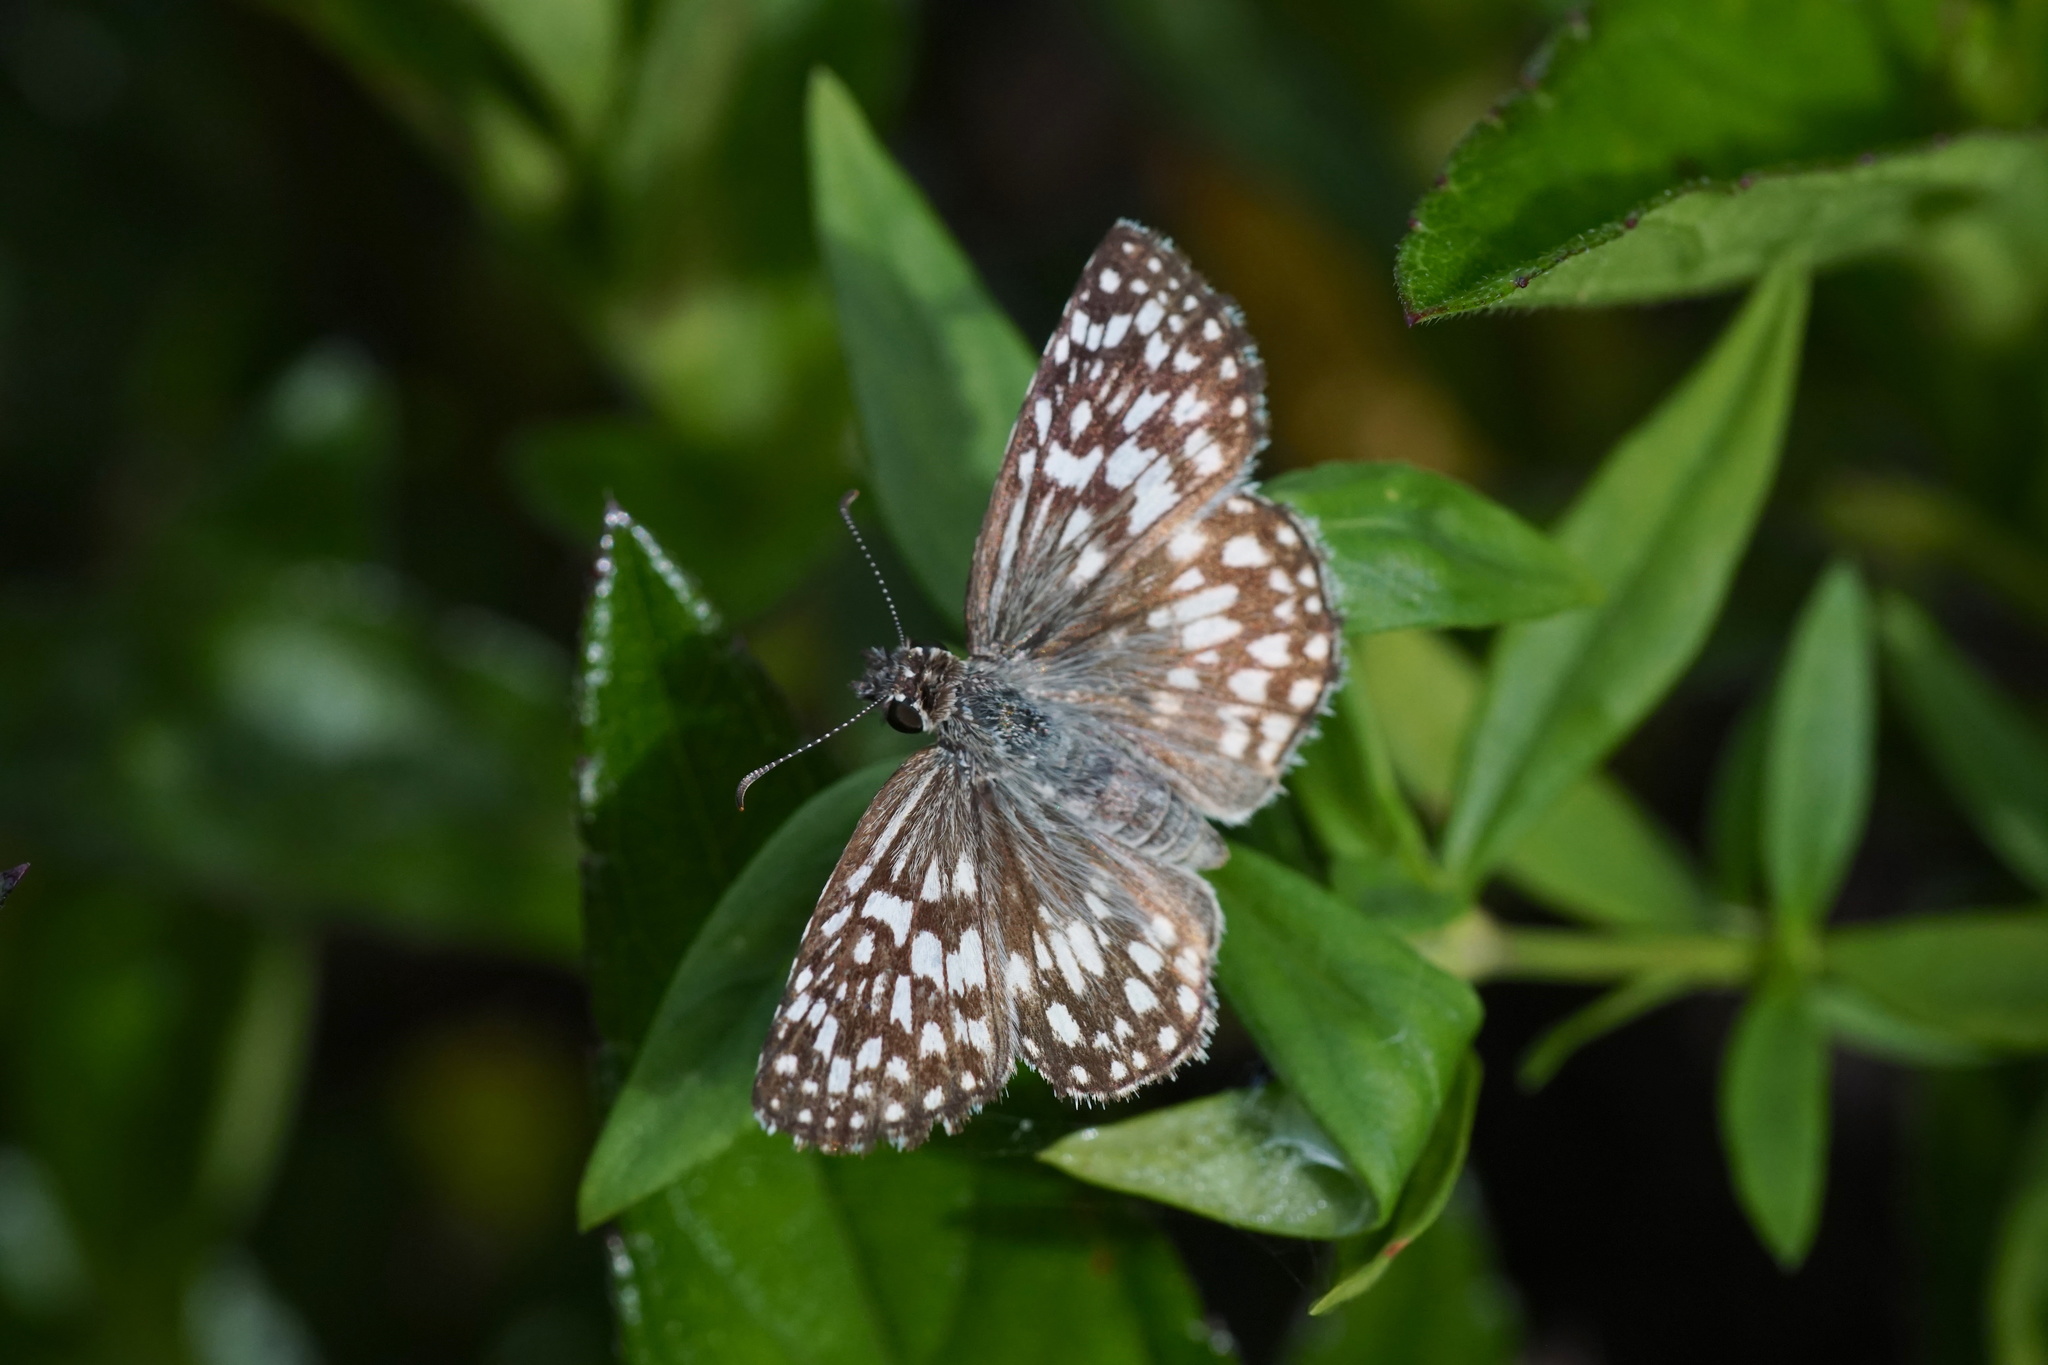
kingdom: Animalia
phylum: Arthropoda
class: Insecta
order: Lepidoptera
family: Hesperiidae
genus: Pyrgus
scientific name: Pyrgus oileus
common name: Tropical checkered-skipper
